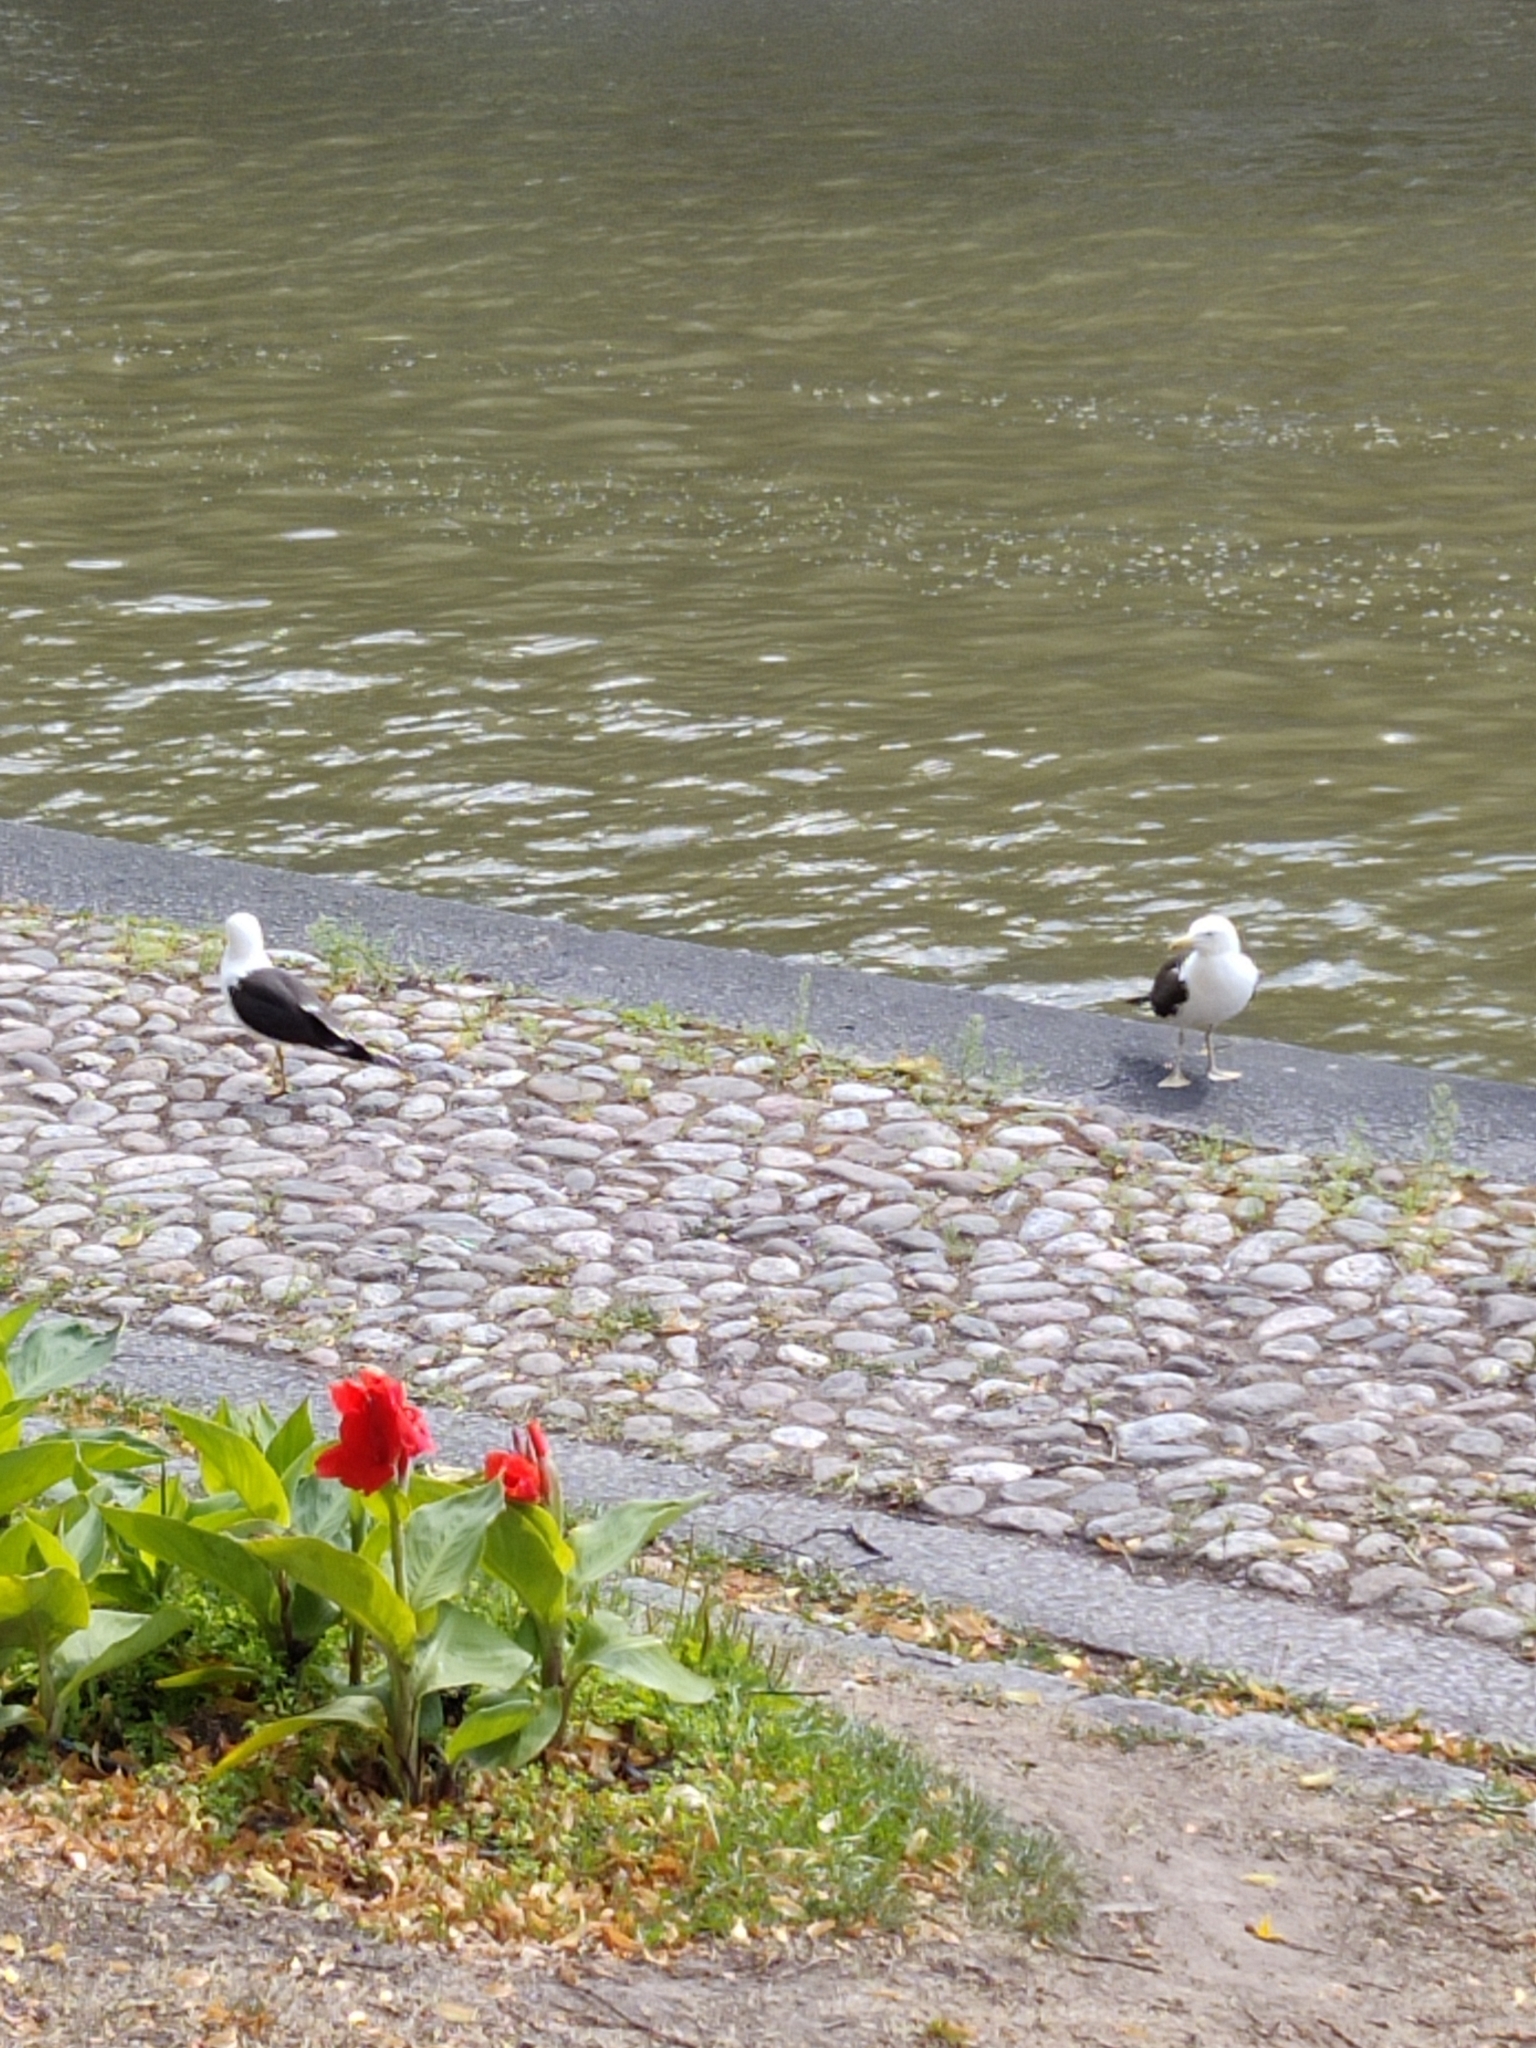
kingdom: Animalia
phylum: Chordata
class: Aves
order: Charadriiformes
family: Laridae
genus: Larus
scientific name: Larus fuscus
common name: Lesser black-backed gull
